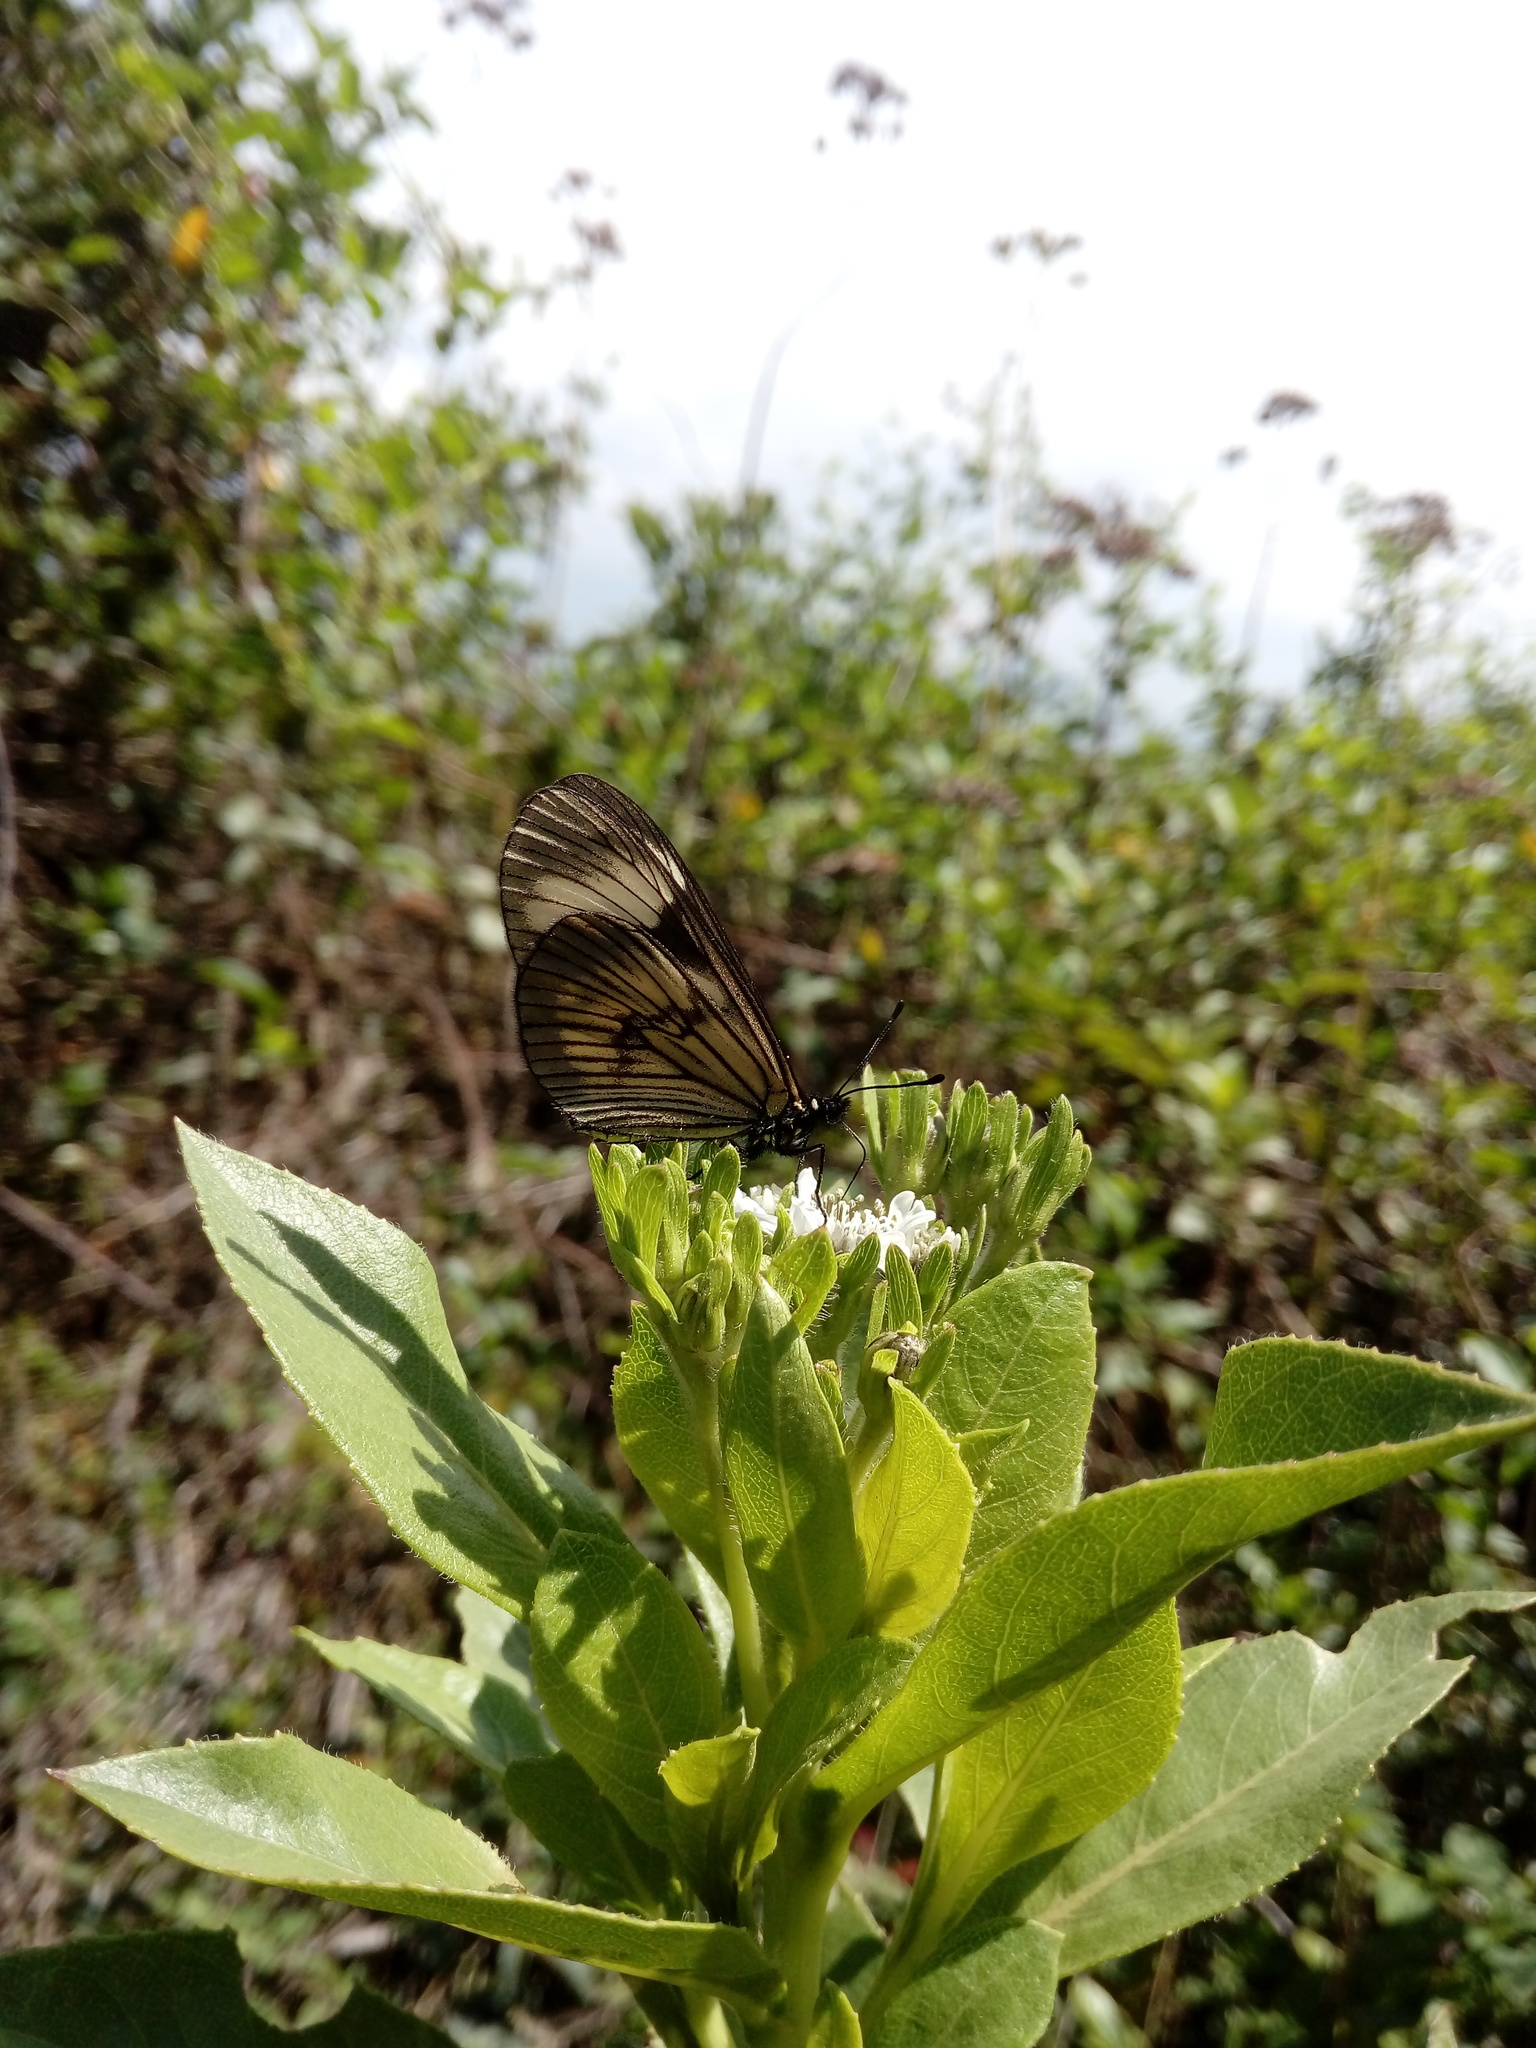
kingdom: Animalia
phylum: Arthropoda
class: Insecta
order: Lepidoptera
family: Nymphalidae
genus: Actinote
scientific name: Actinote anteas
